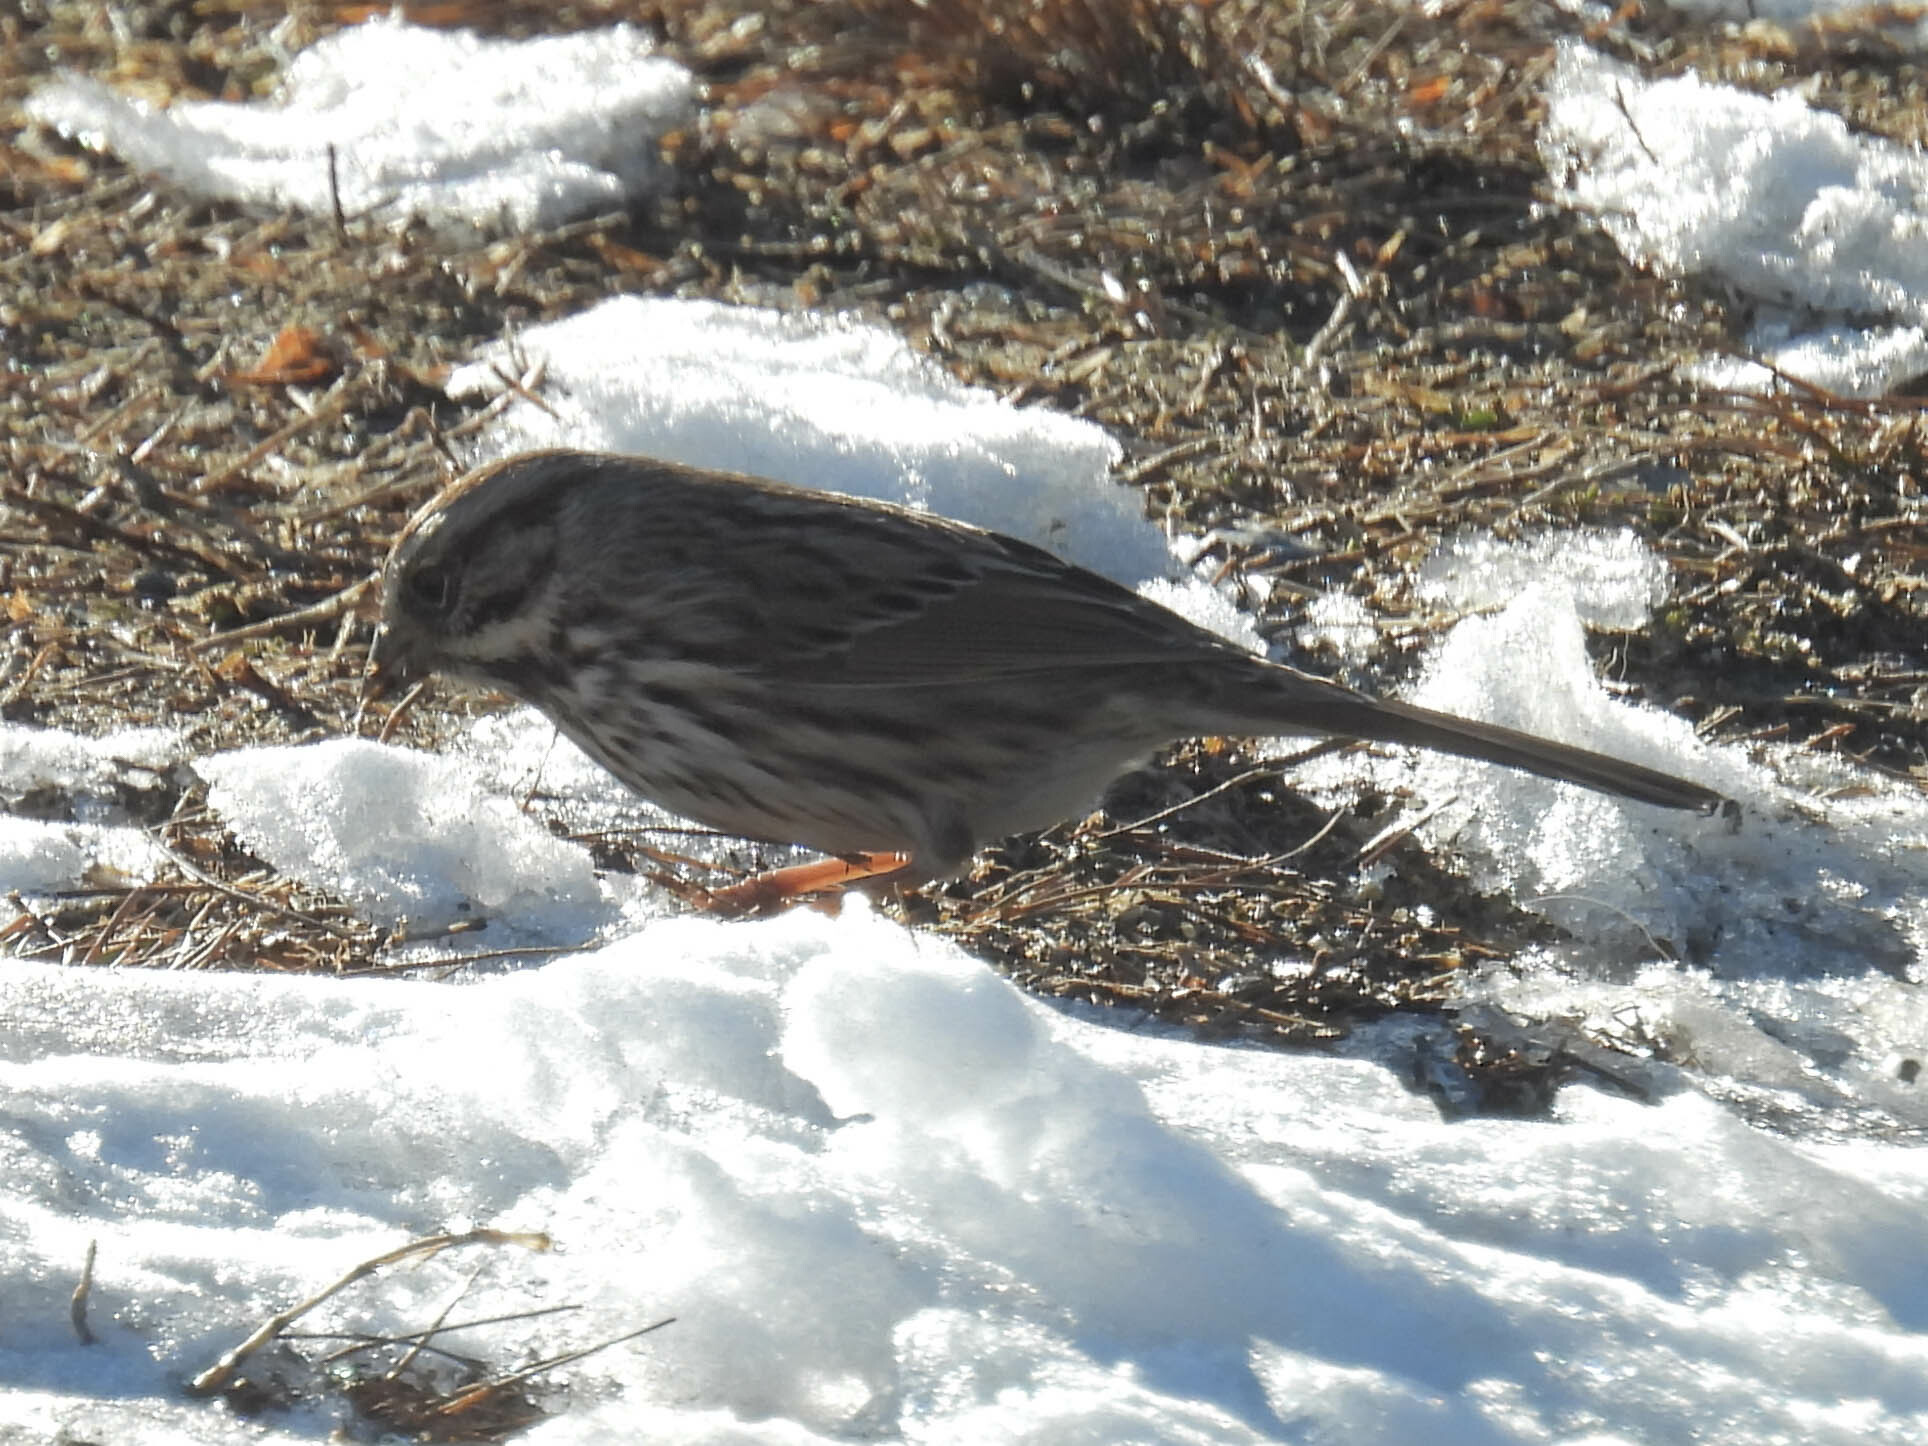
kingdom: Animalia
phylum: Chordata
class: Aves
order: Passeriformes
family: Passerellidae
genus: Melospiza
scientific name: Melospiza melodia
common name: Song sparrow
